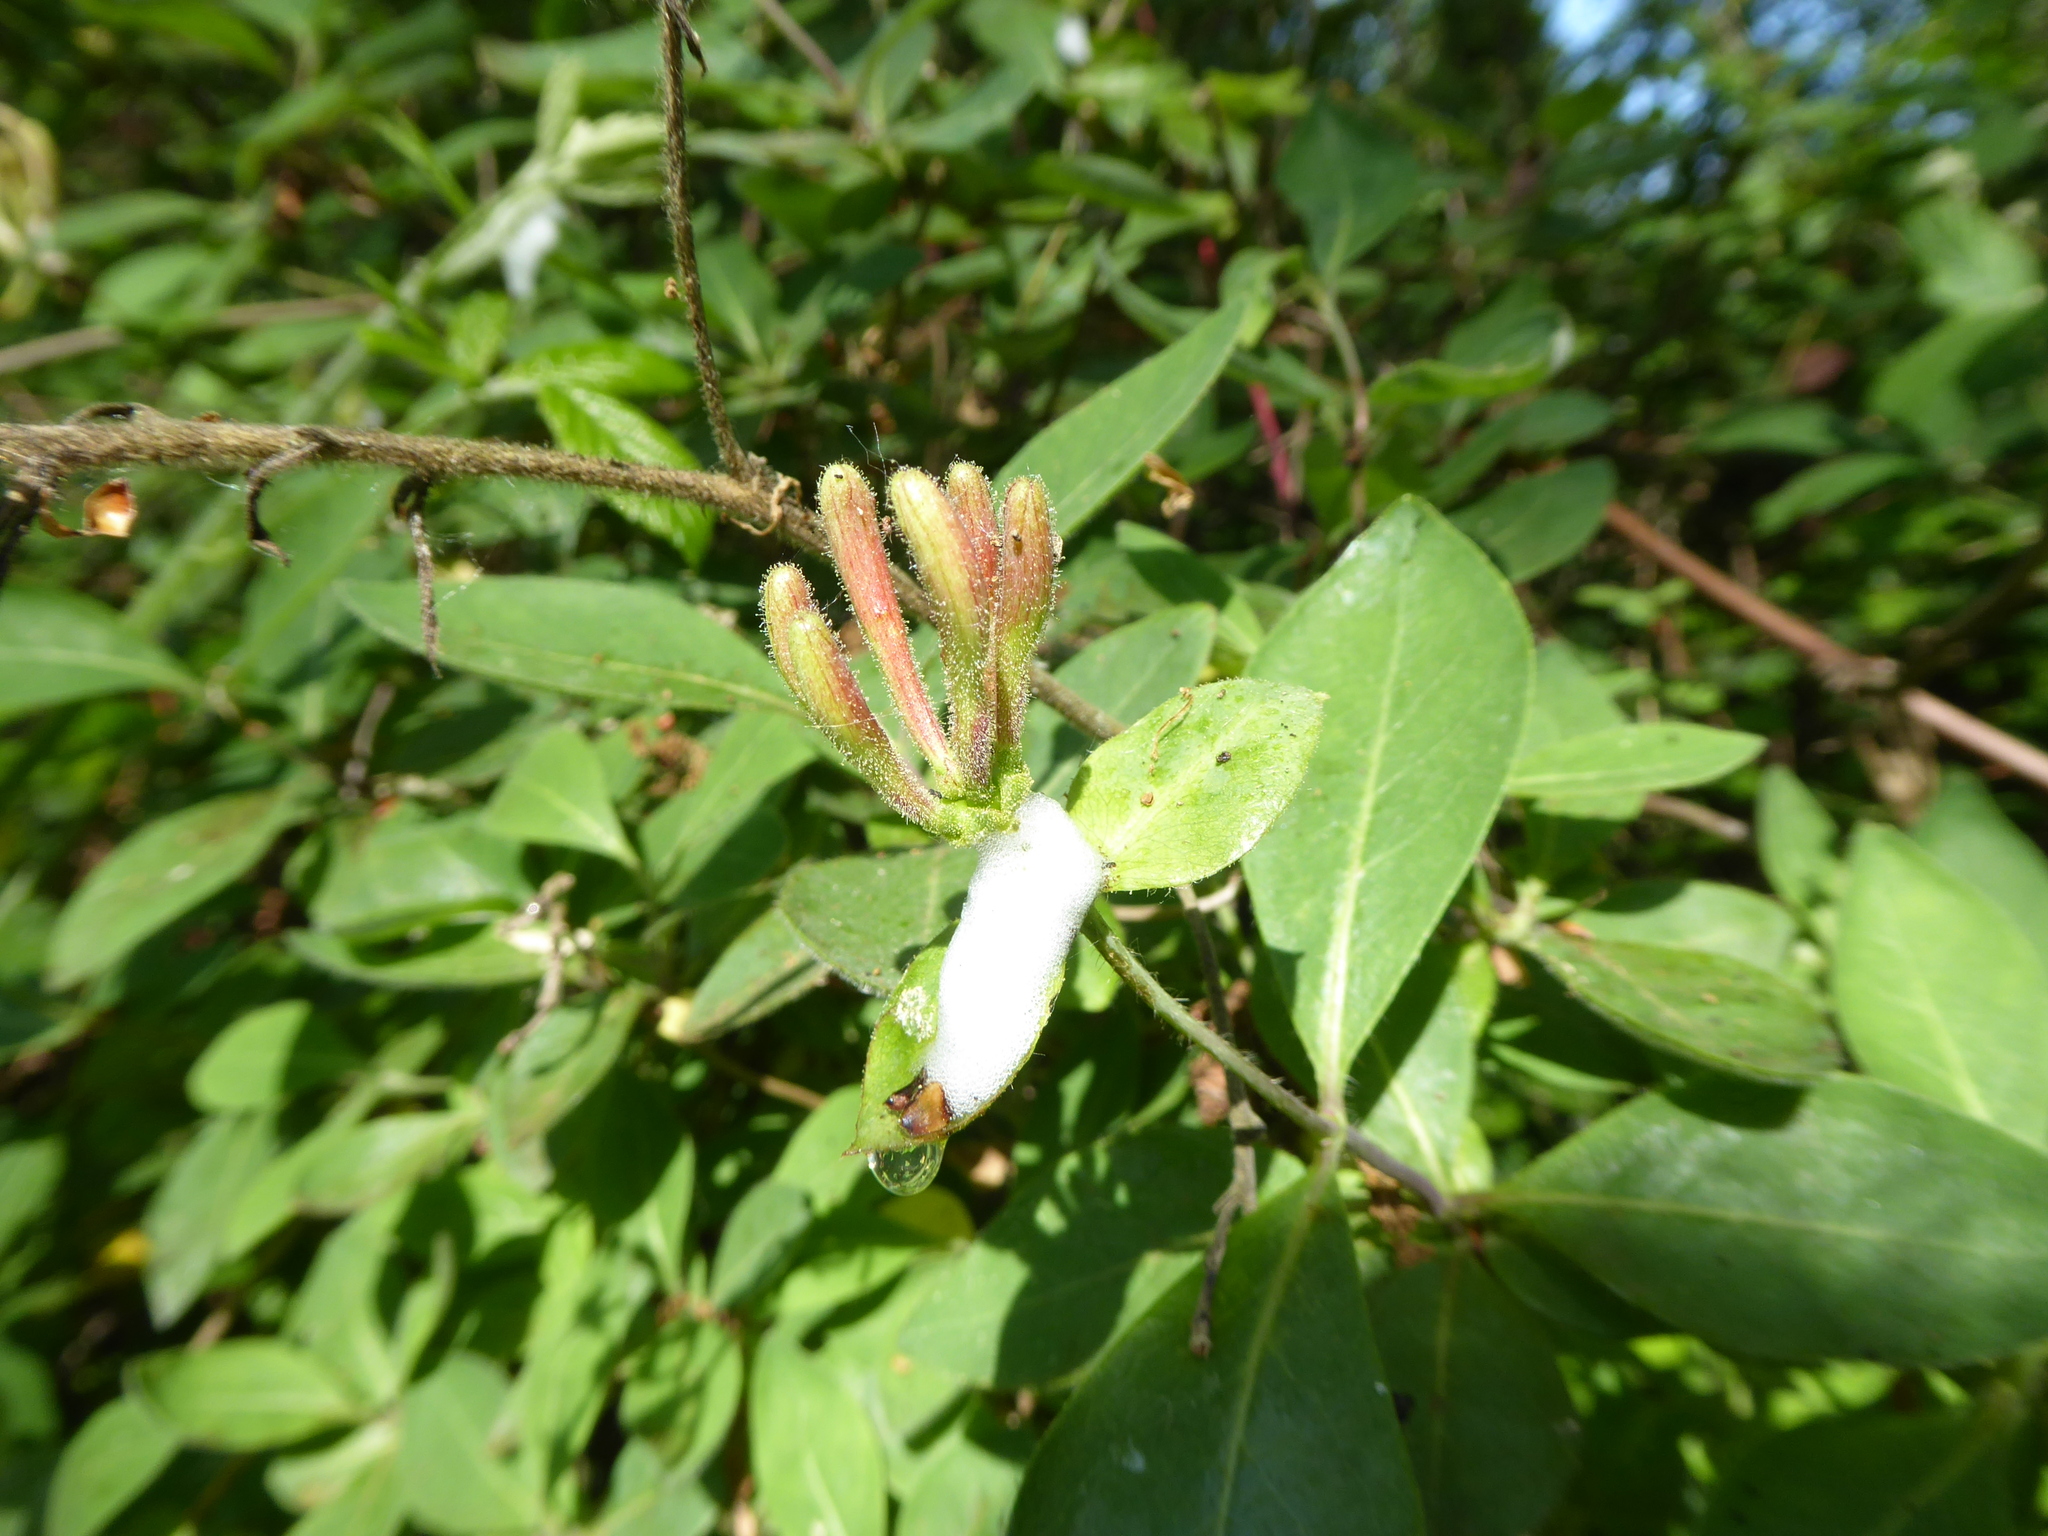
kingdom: Plantae
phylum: Tracheophyta
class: Magnoliopsida
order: Dipsacales
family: Caprifoliaceae
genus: Lonicera
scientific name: Lonicera periclymenum
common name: European honeysuckle
